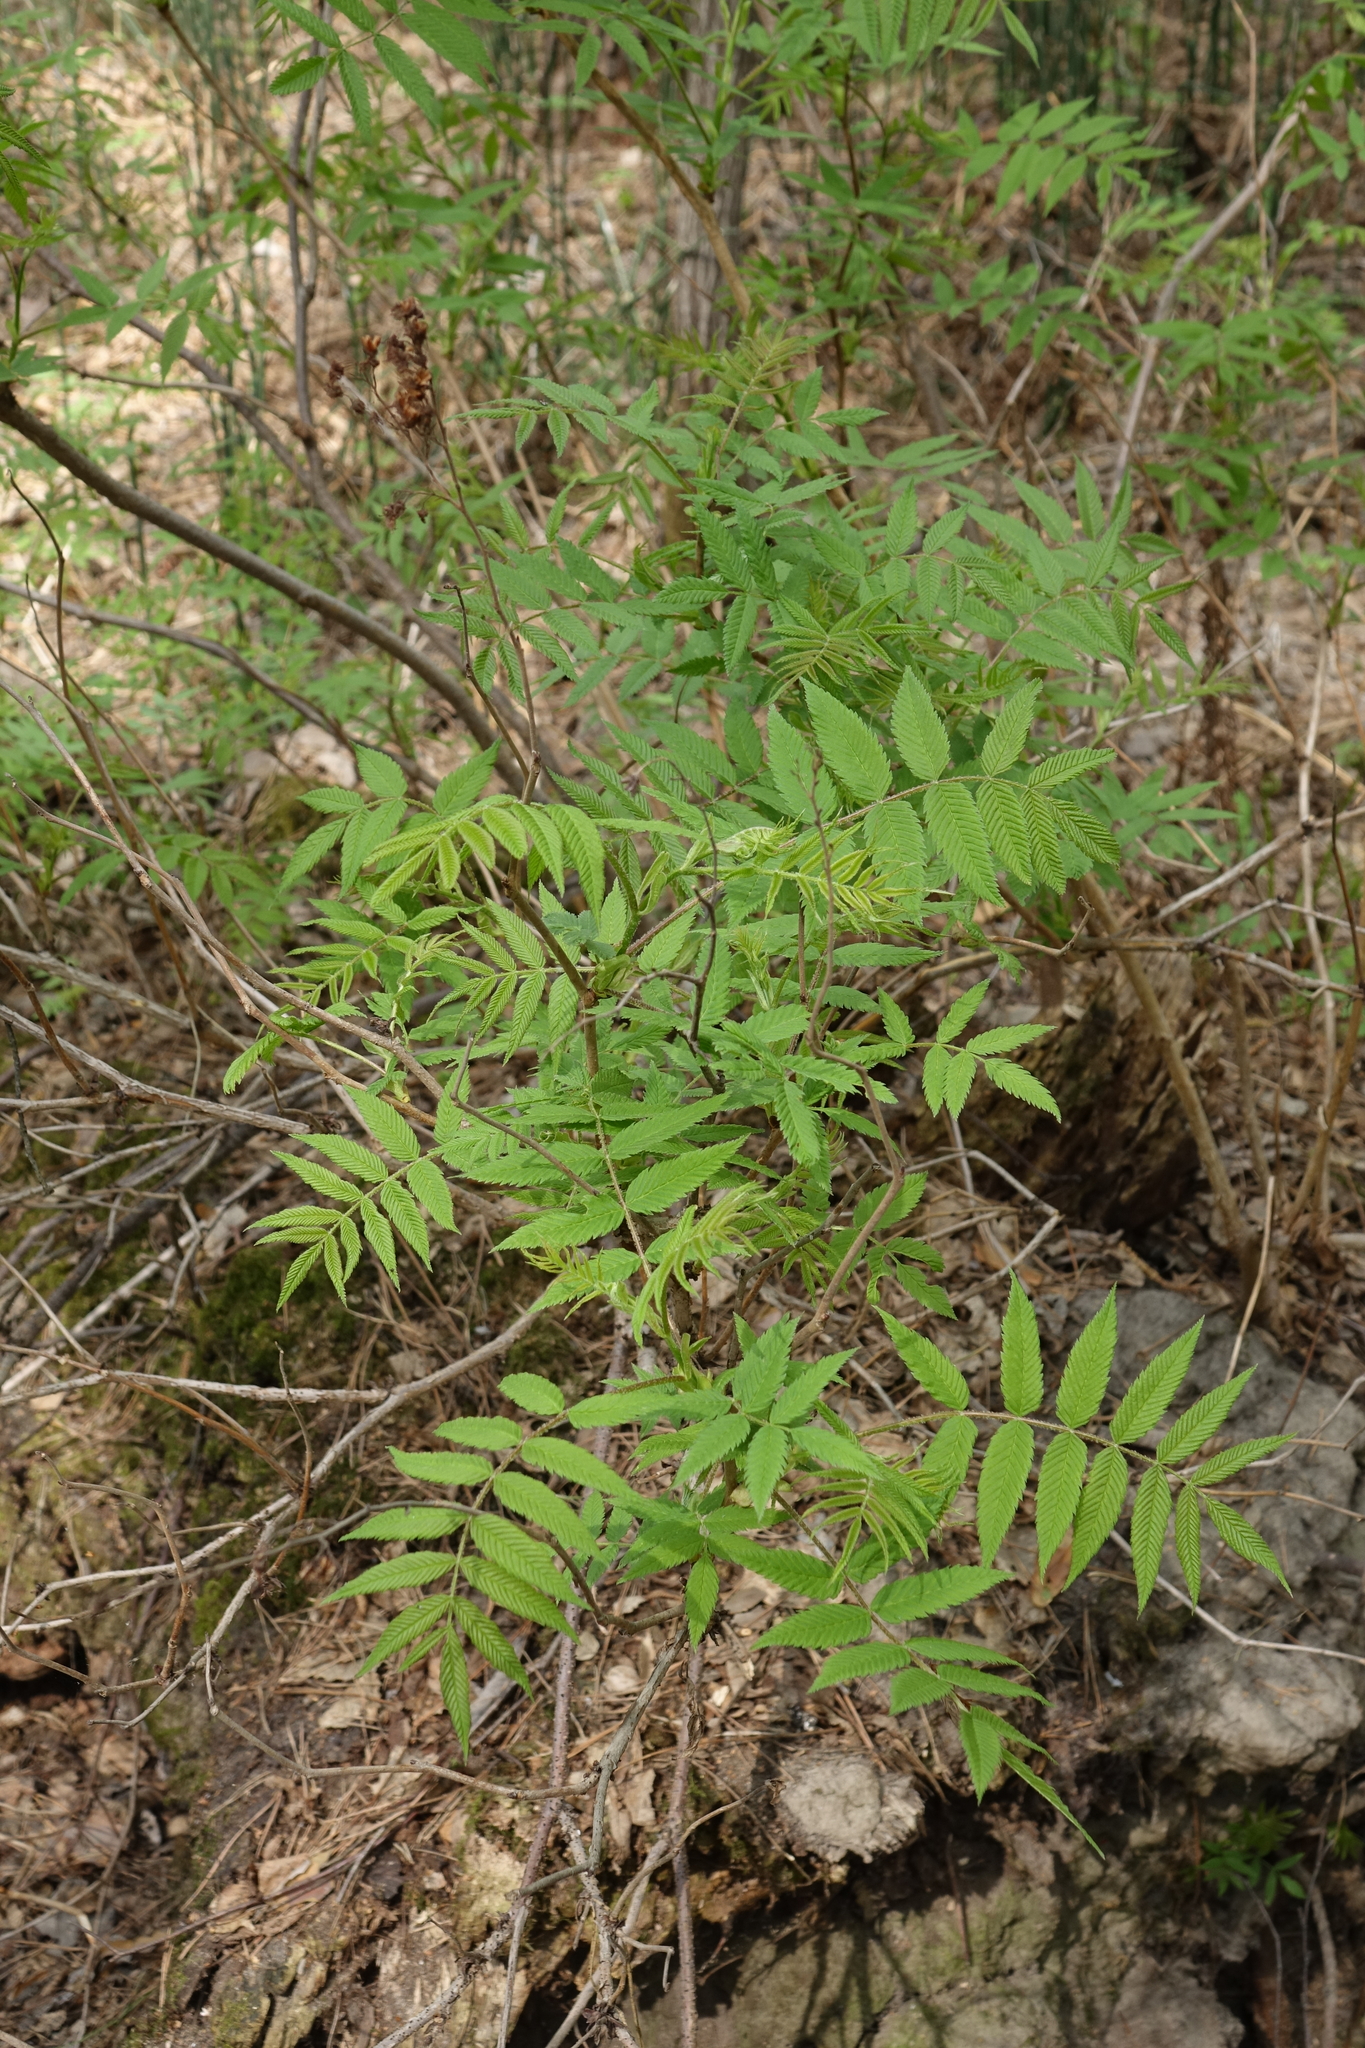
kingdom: Plantae
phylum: Tracheophyta
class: Magnoliopsida
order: Rosales
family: Rosaceae
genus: Sorbaria
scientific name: Sorbaria sorbifolia
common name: False spiraea
